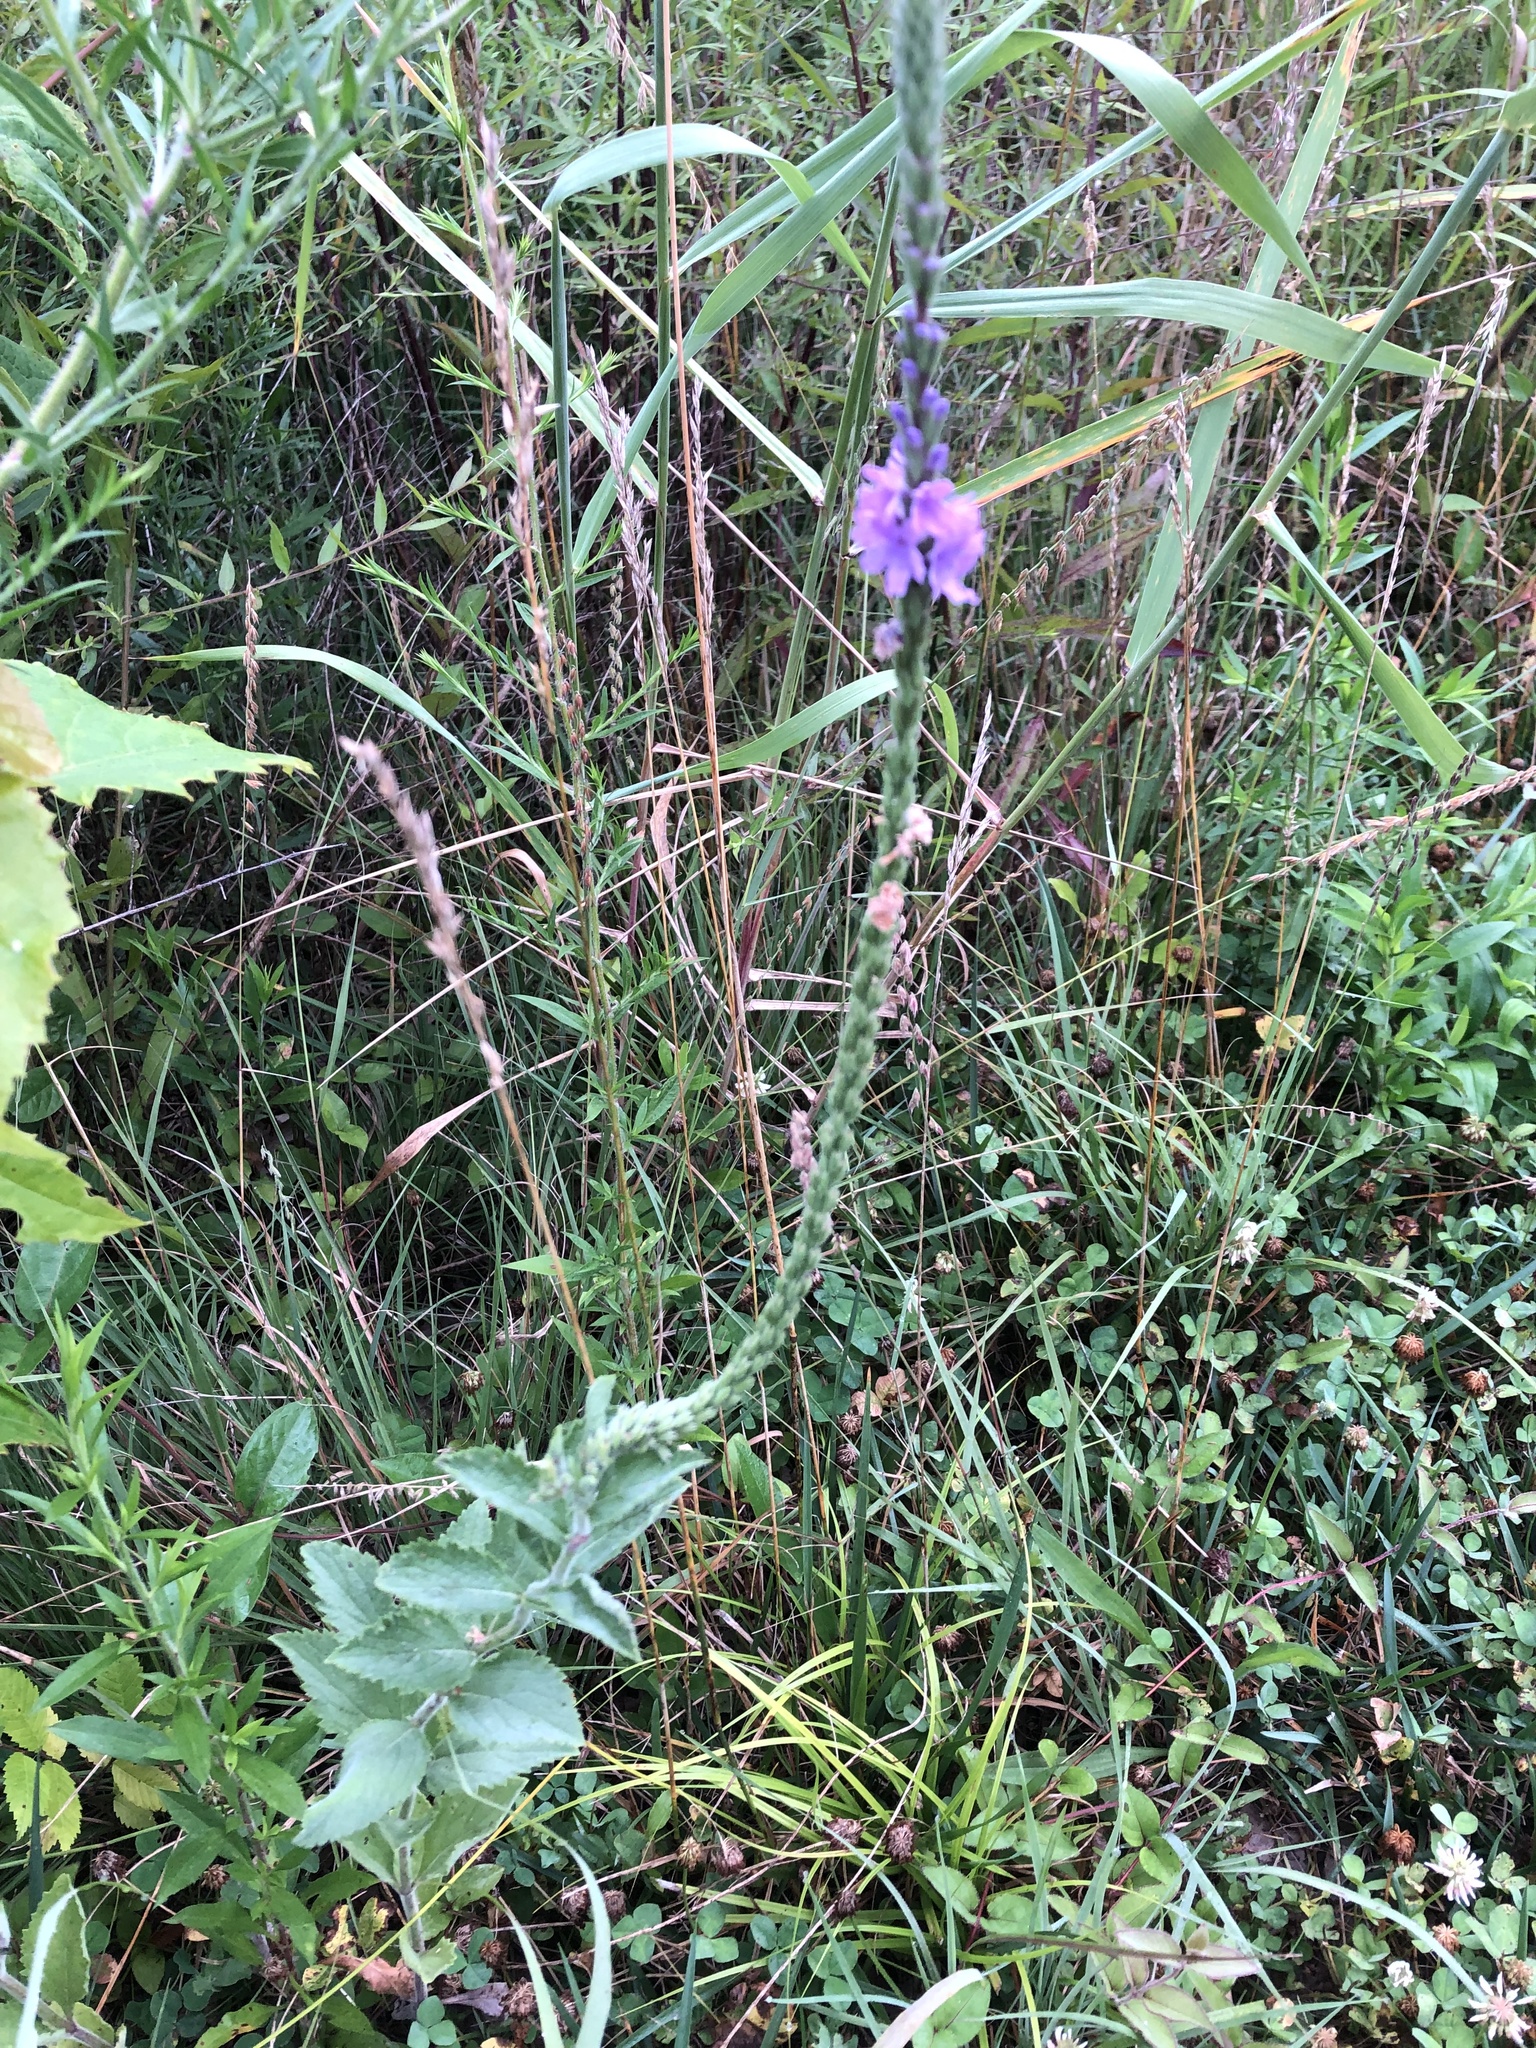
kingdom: Plantae
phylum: Tracheophyta
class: Magnoliopsida
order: Lamiales
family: Verbenaceae
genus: Verbena
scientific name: Verbena stricta
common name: Hoary vervain
